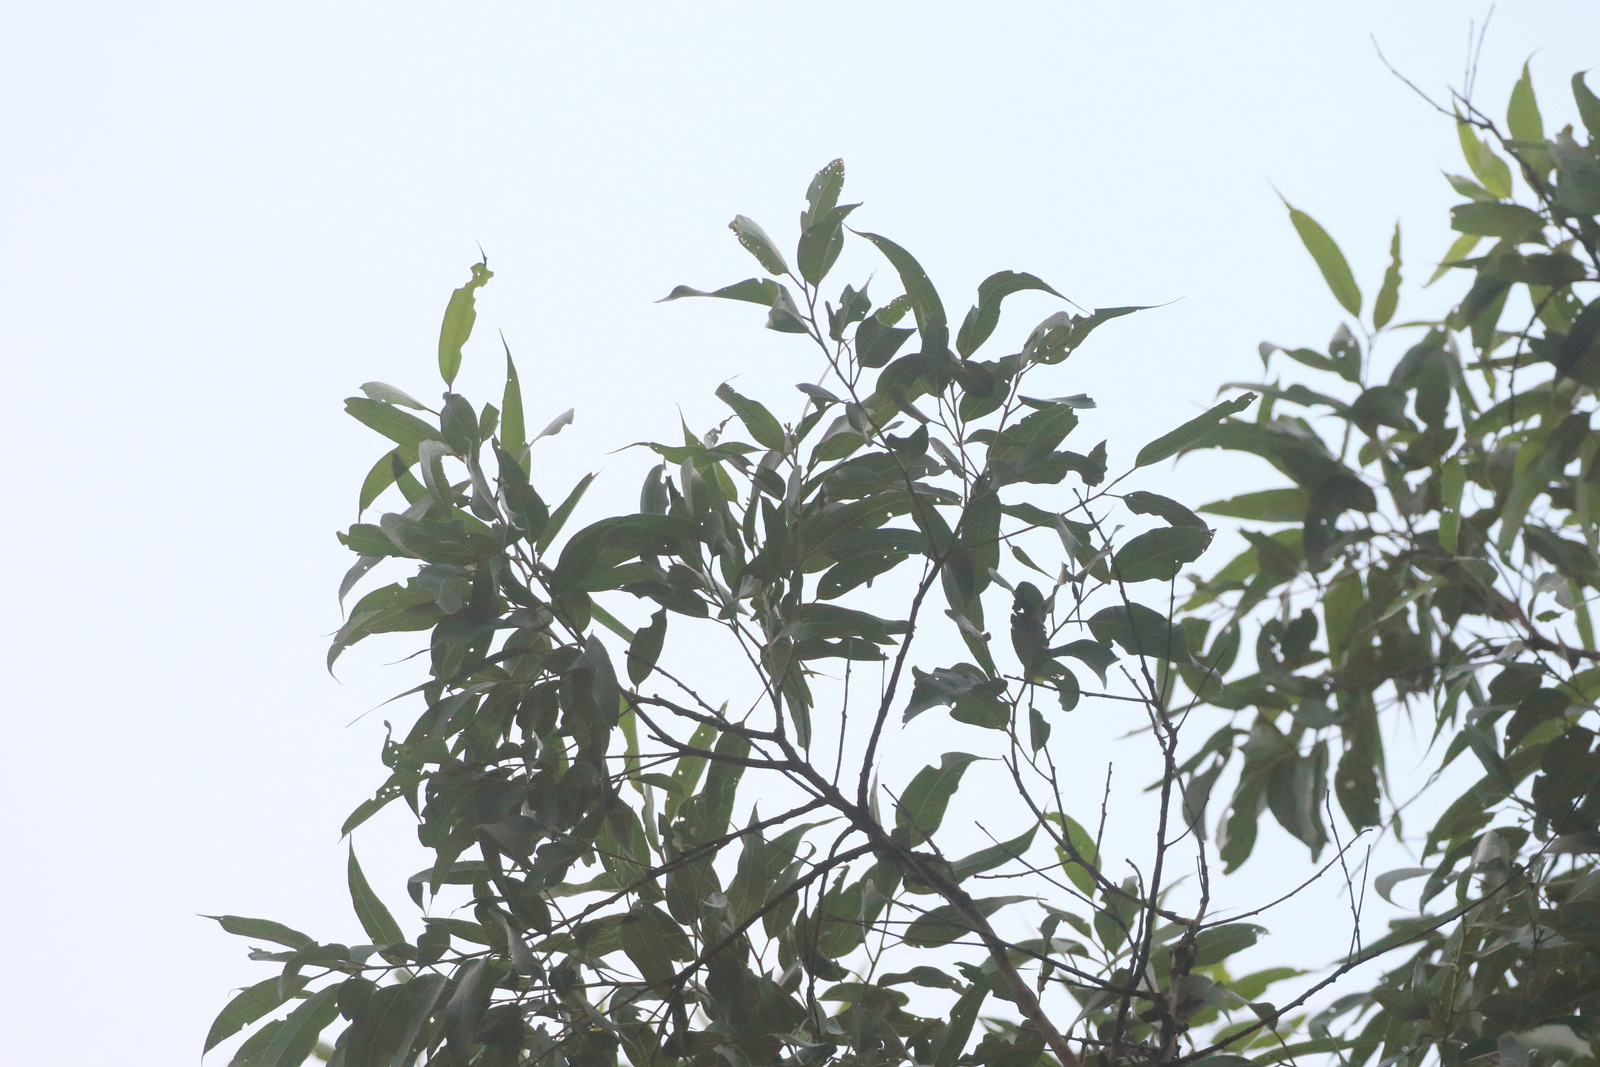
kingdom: Plantae
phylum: Tracheophyta
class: Magnoliopsida
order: Myrtales
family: Myrtaceae
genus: Corymbia
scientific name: Corymbia maculata
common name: Spotted gum
